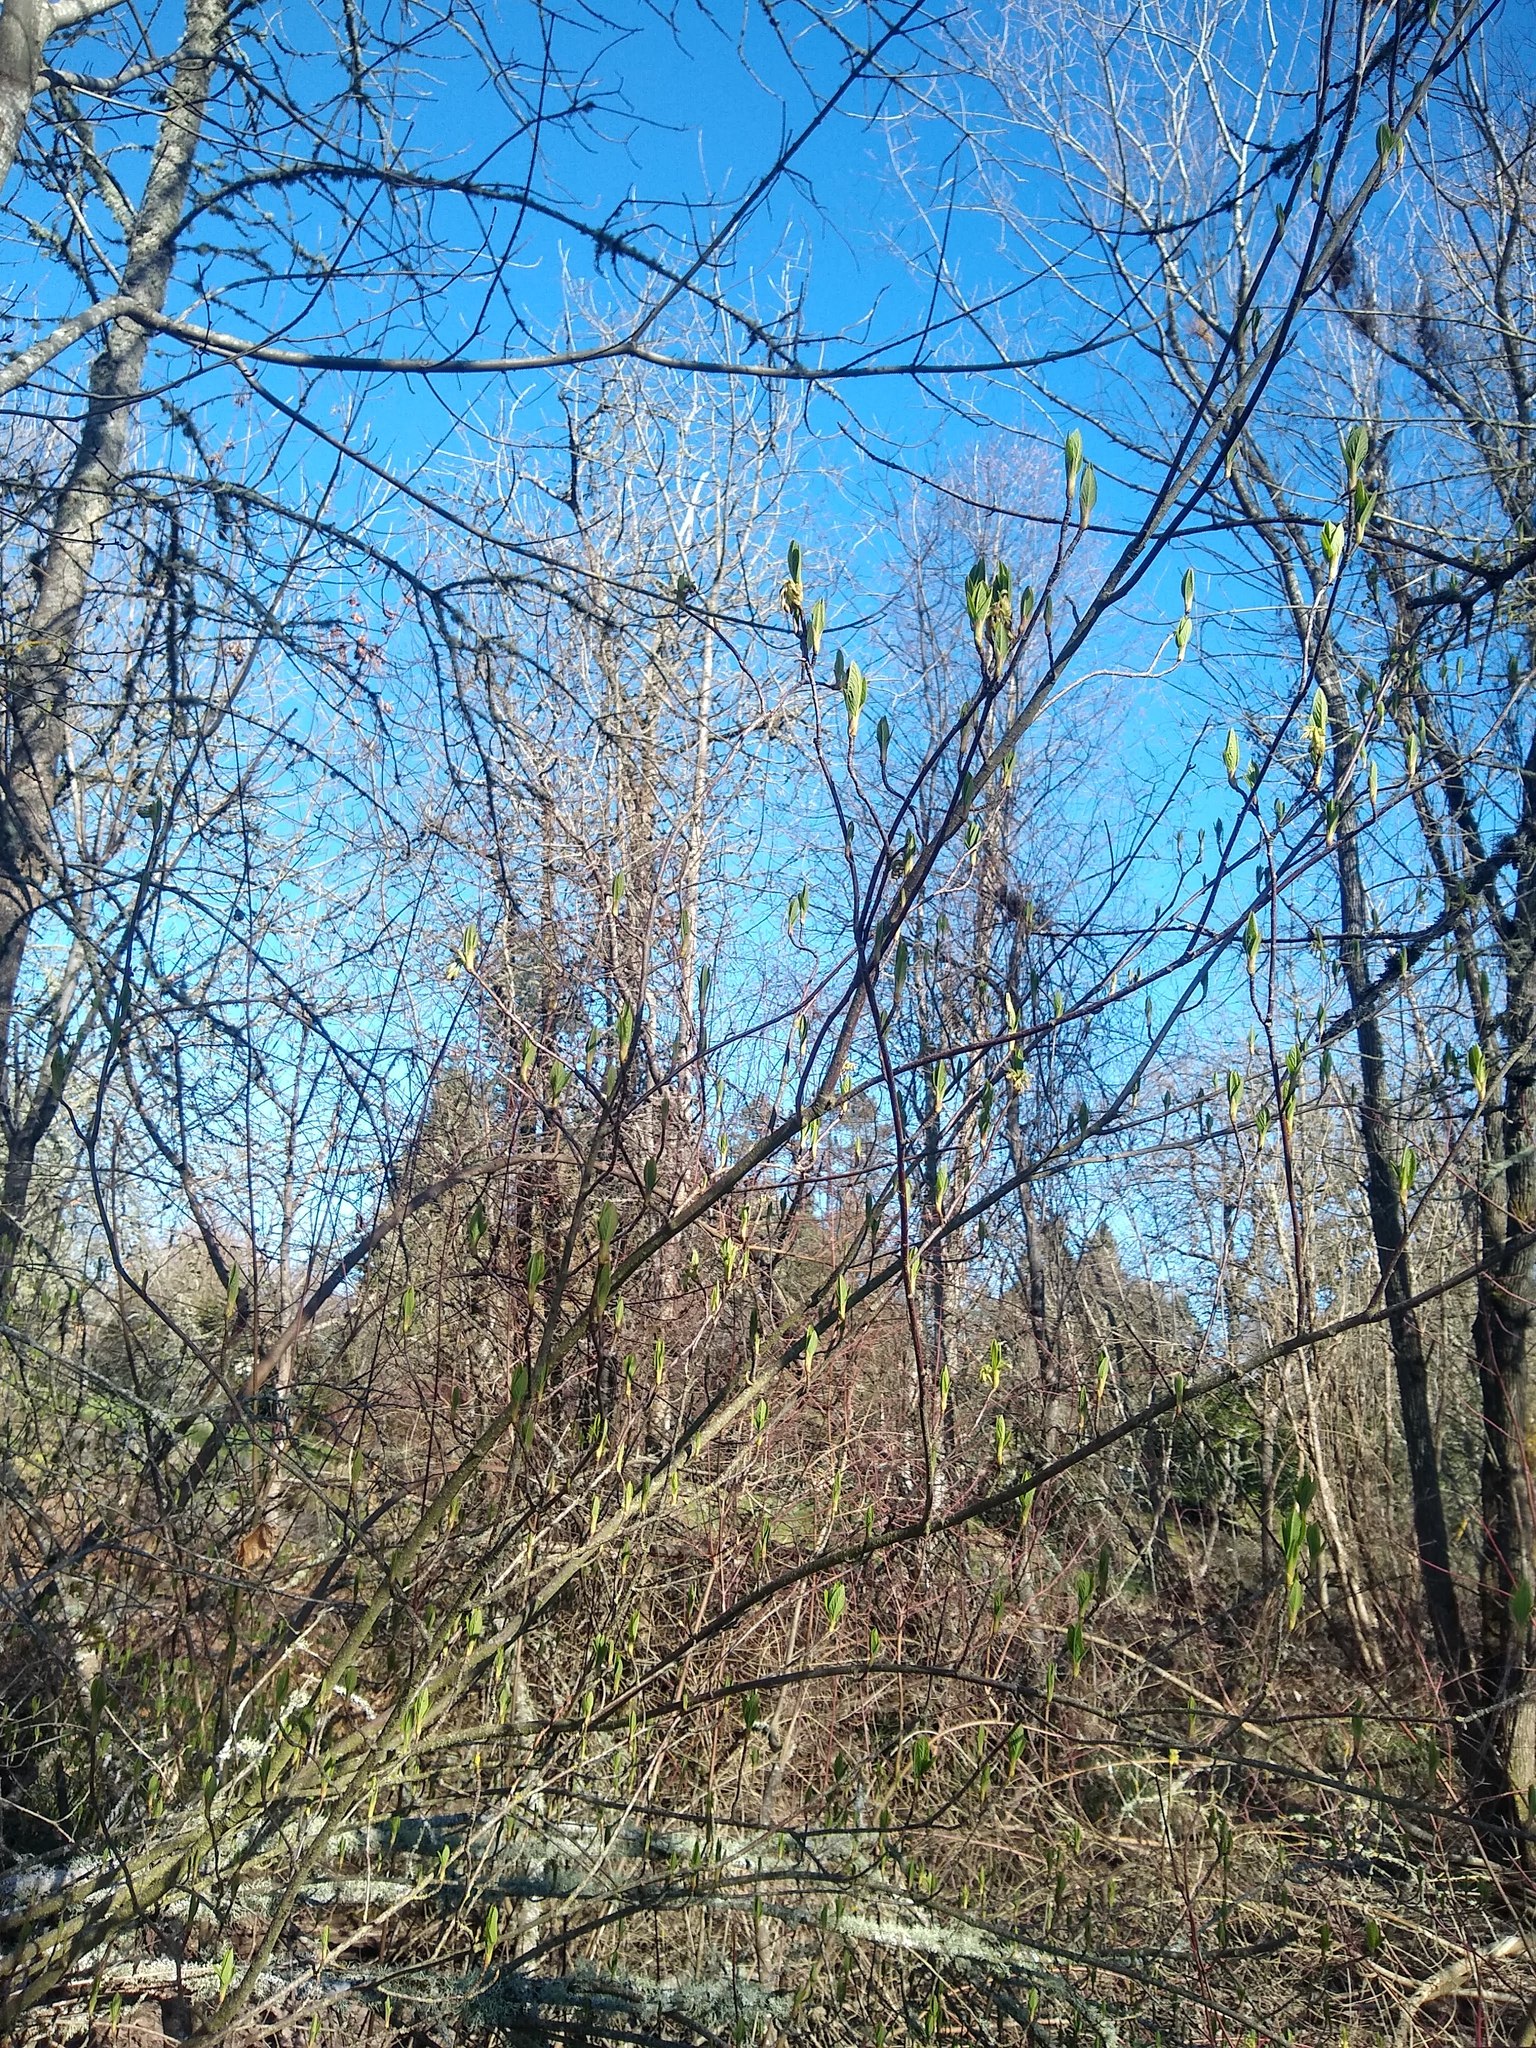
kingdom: Plantae
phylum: Tracheophyta
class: Magnoliopsida
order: Rosales
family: Rosaceae
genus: Oemleria
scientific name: Oemleria cerasiformis
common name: Osoberry
